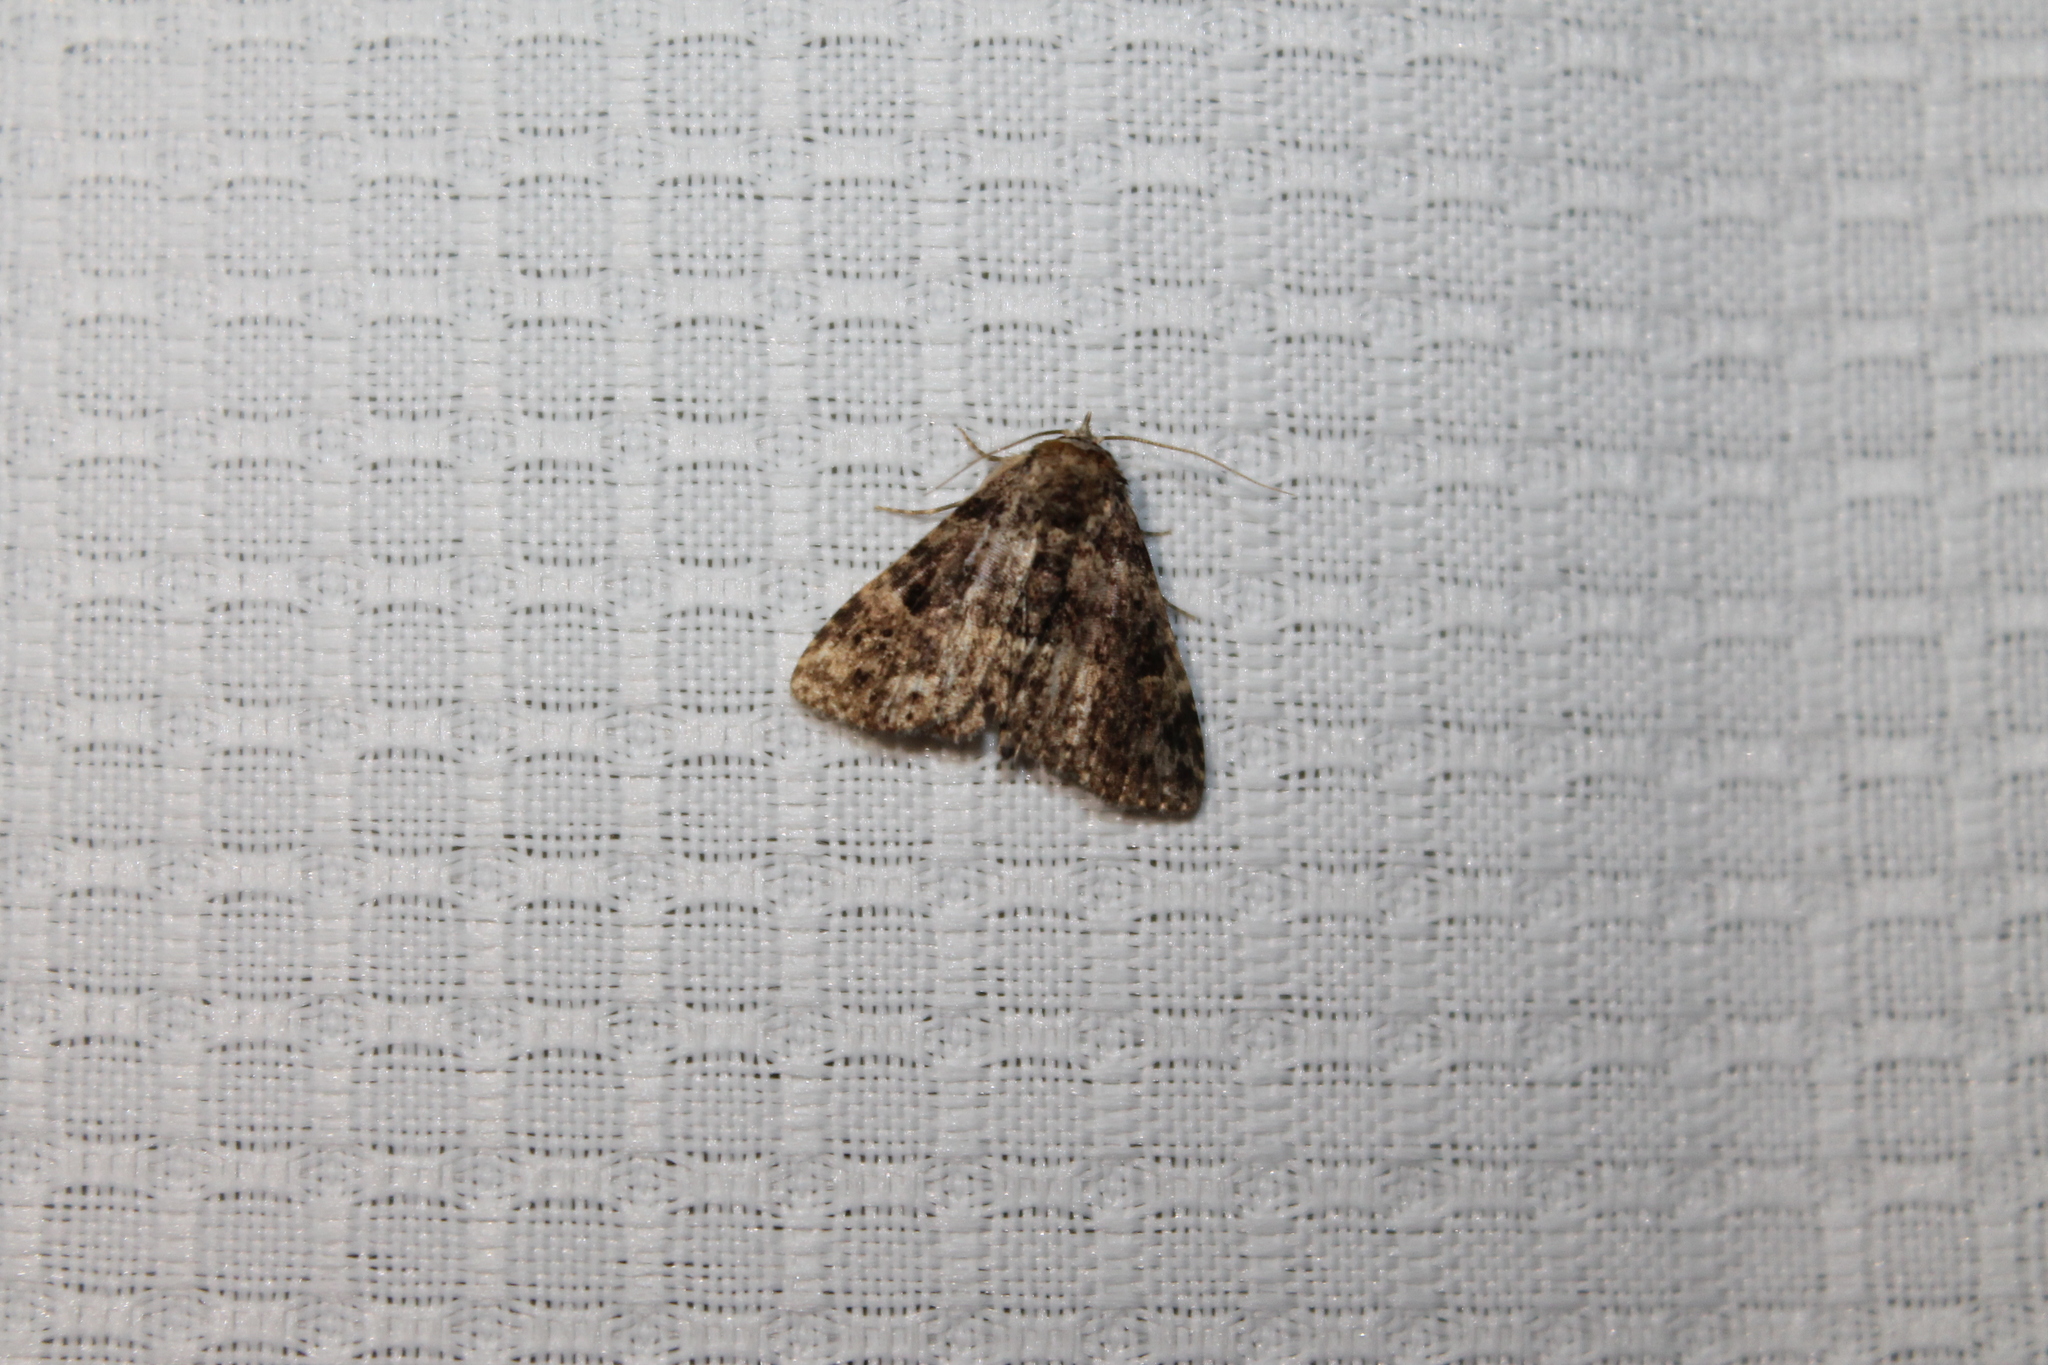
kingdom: Animalia
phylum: Arthropoda
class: Insecta
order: Lepidoptera
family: Erebidae
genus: Metalectra
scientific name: Metalectra discalis
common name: Common fungus moth
